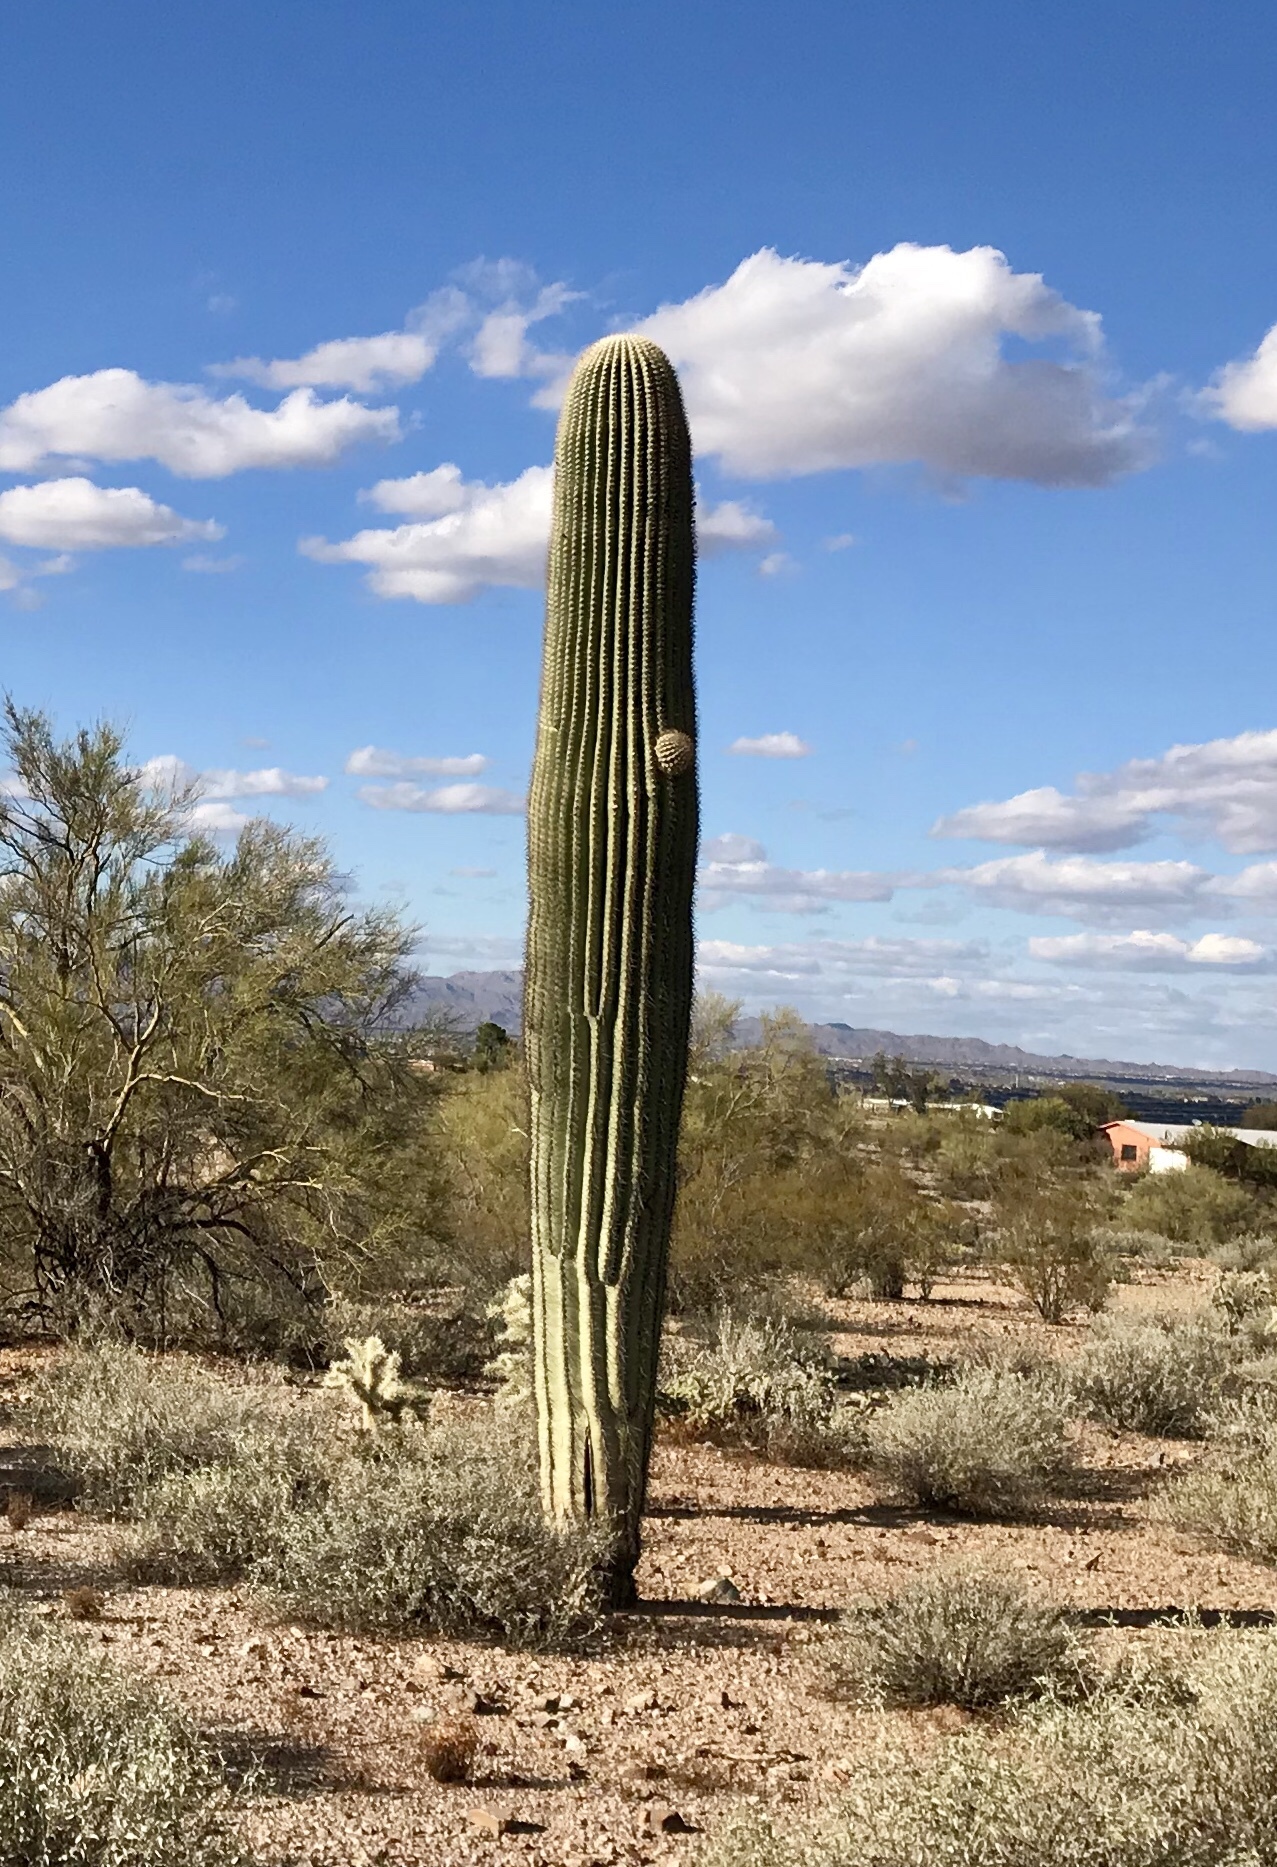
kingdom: Plantae
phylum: Tracheophyta
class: Magnoliopsida
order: Caryophyllales
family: Cactaceae
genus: Carnegiea
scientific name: Carnegiea gigantea
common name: Saguaro
